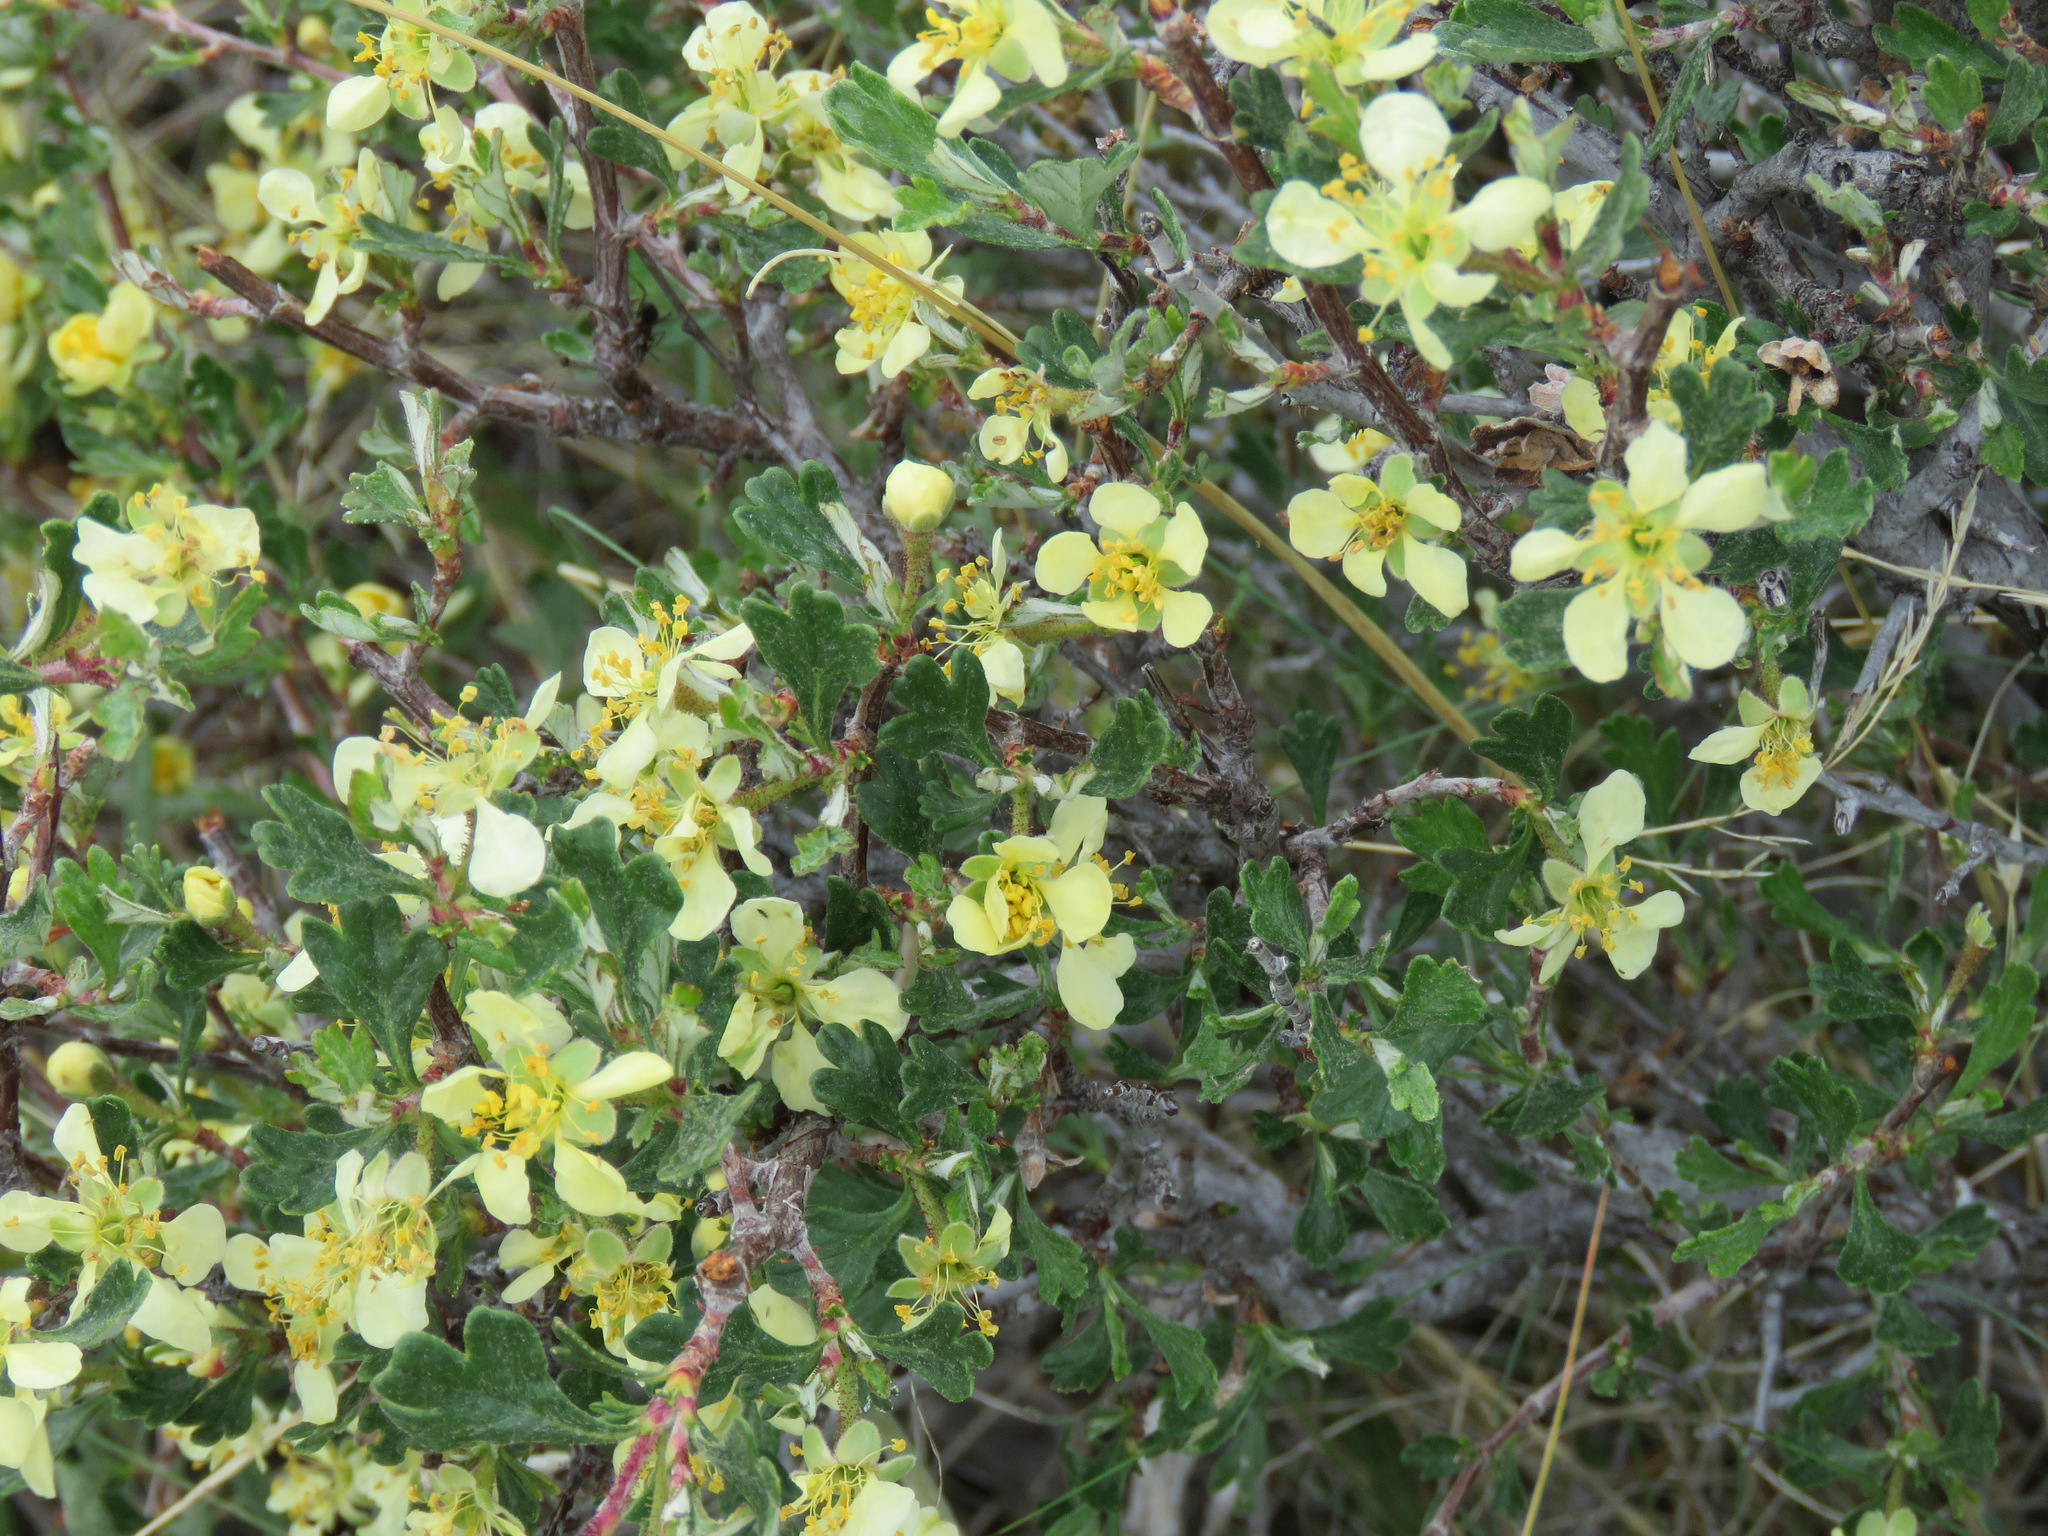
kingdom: Plantae
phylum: Tracheophyta
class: Magnoliopsida
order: Rosales
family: Rosaceae
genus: Purshia
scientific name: Purshia tridentata
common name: Antelope bitterbrush
